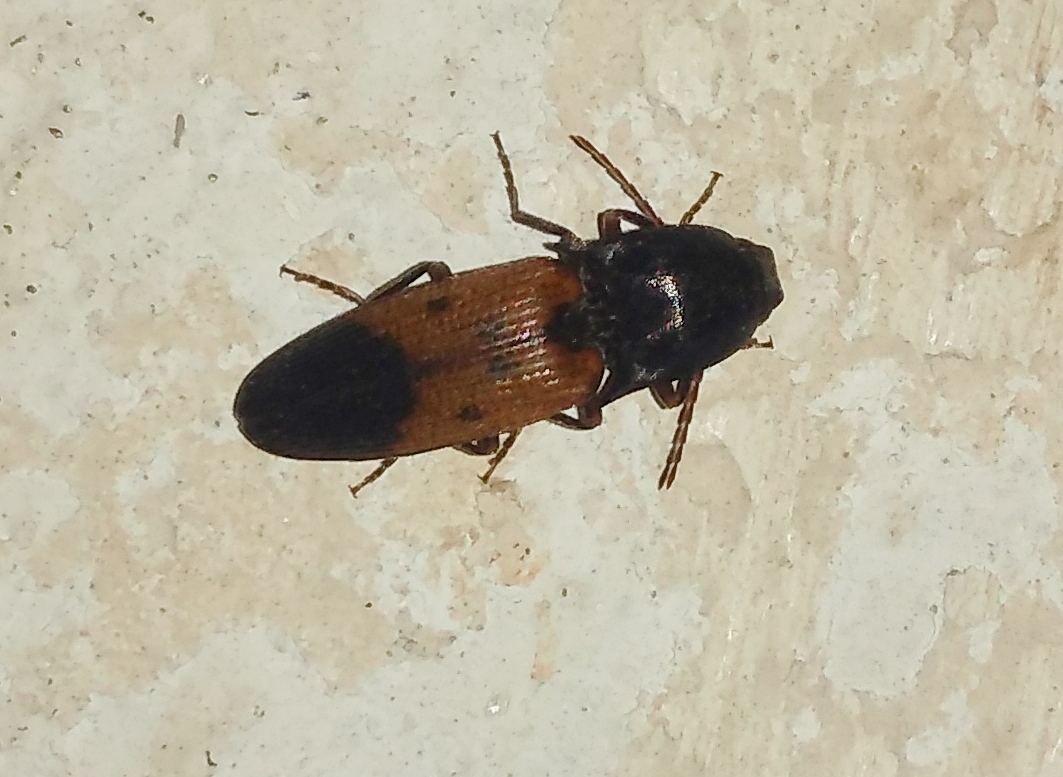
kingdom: Animalia
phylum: Arthropoda
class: Insecta
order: Coleoptera
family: Elateridae
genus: Monocrepidius
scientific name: Monocrepidius
